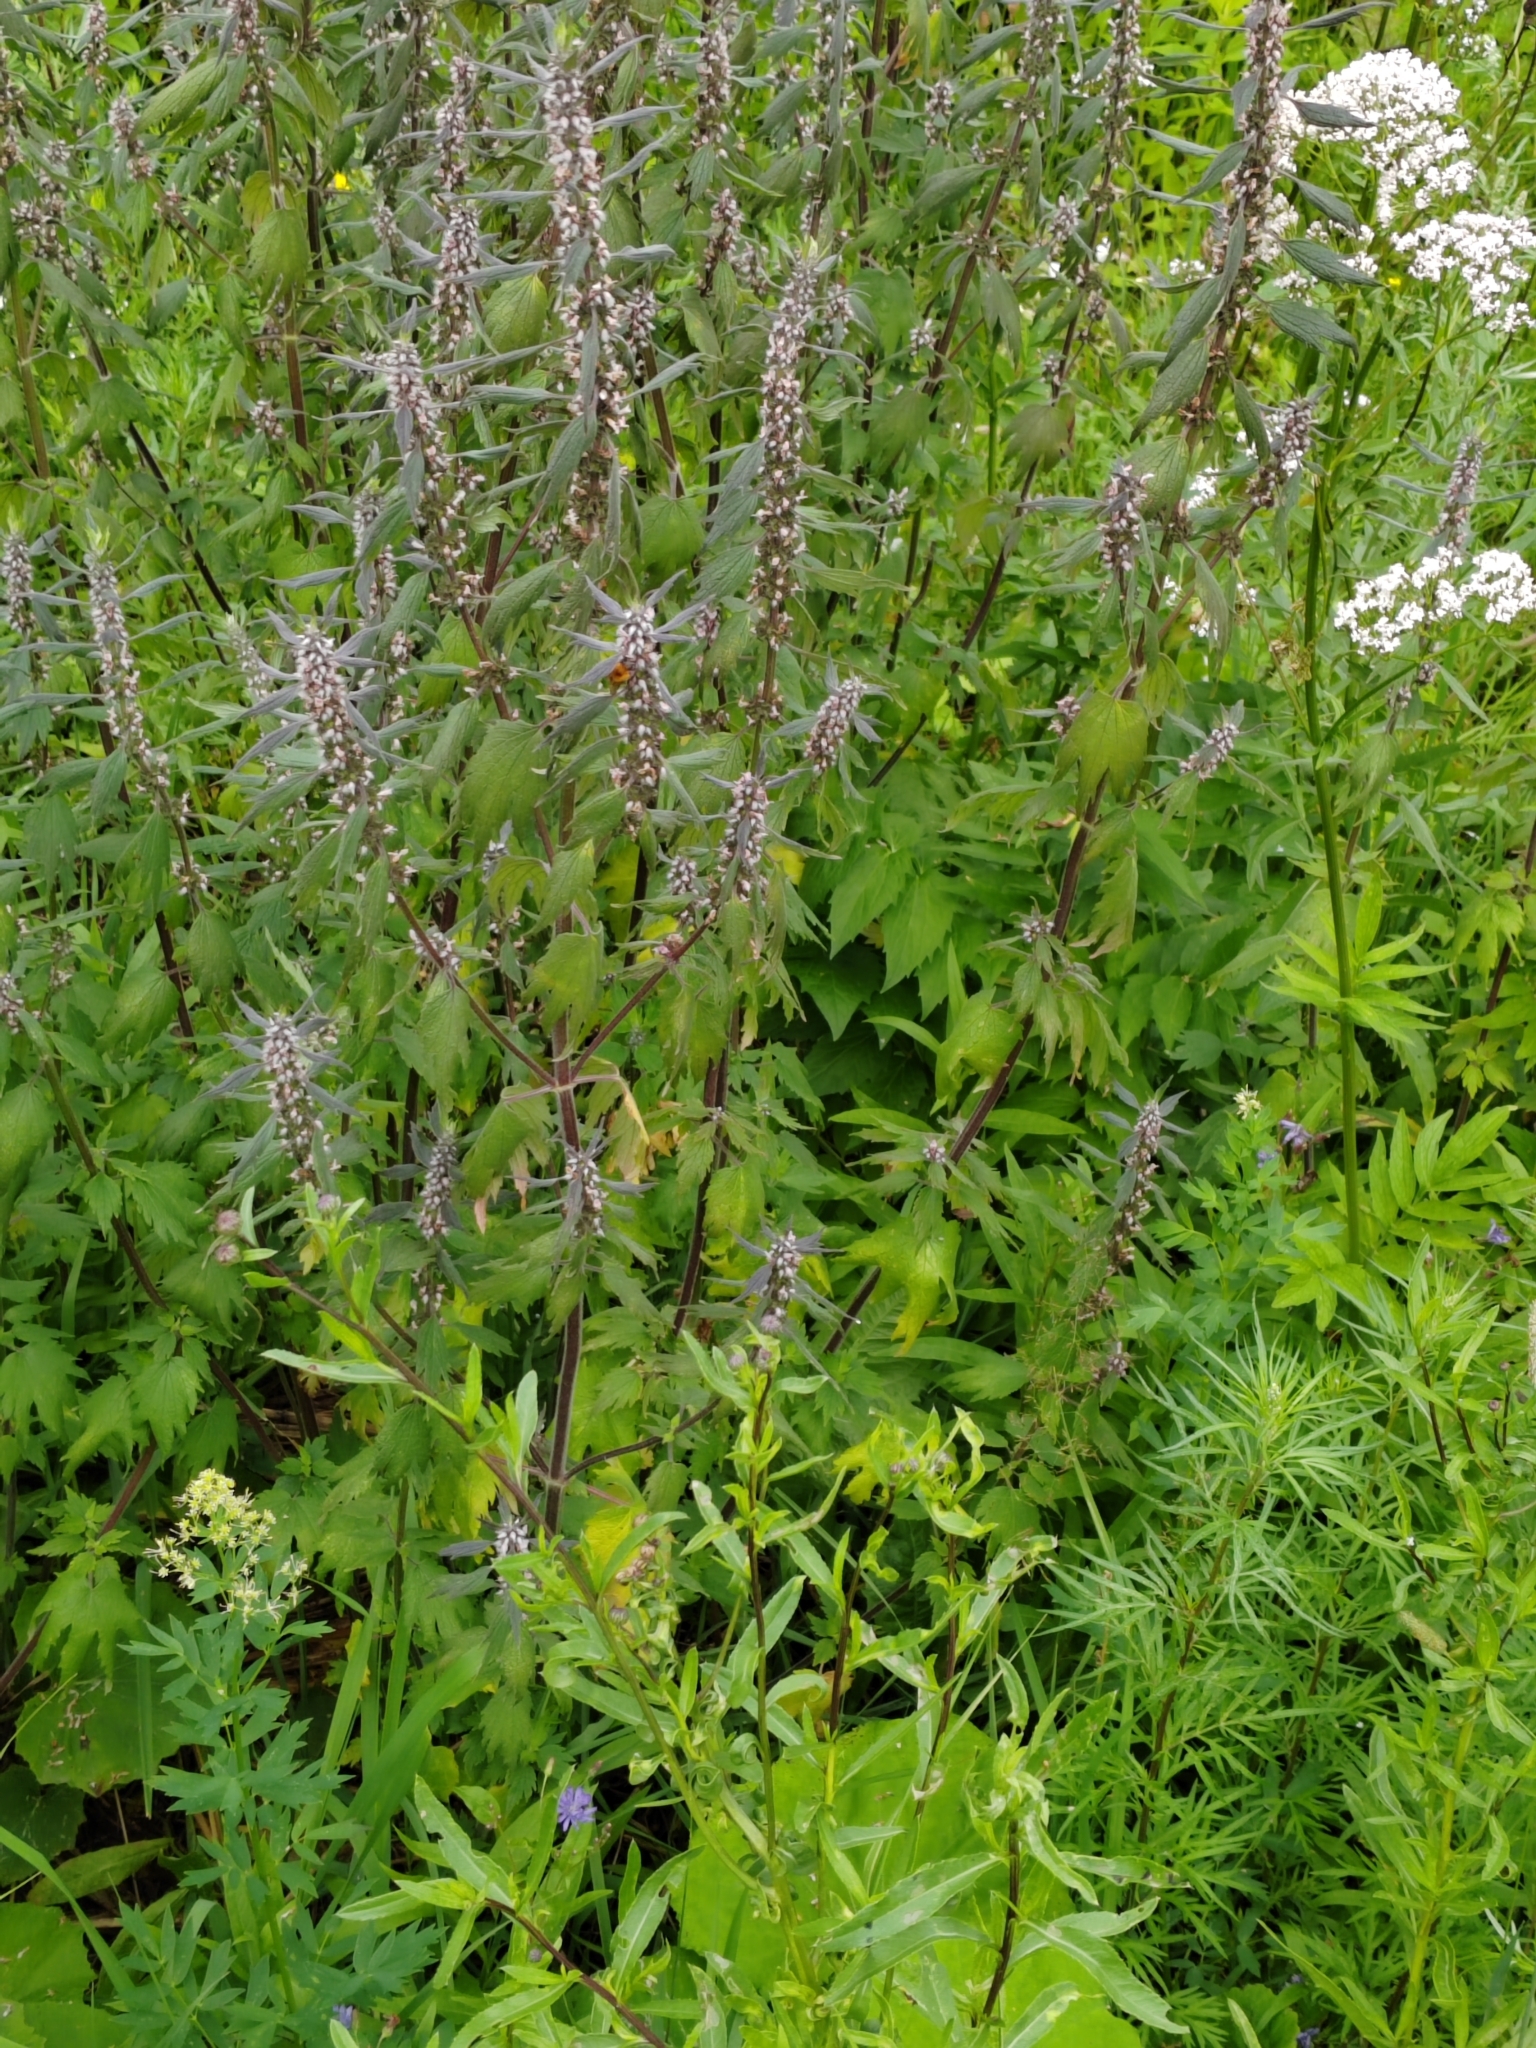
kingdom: Plantae
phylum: Tracheophyta
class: Magnoliopsida
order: Lamiales
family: Lamiaceae
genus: Leonurus
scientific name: Leonurus quinquelobatus
